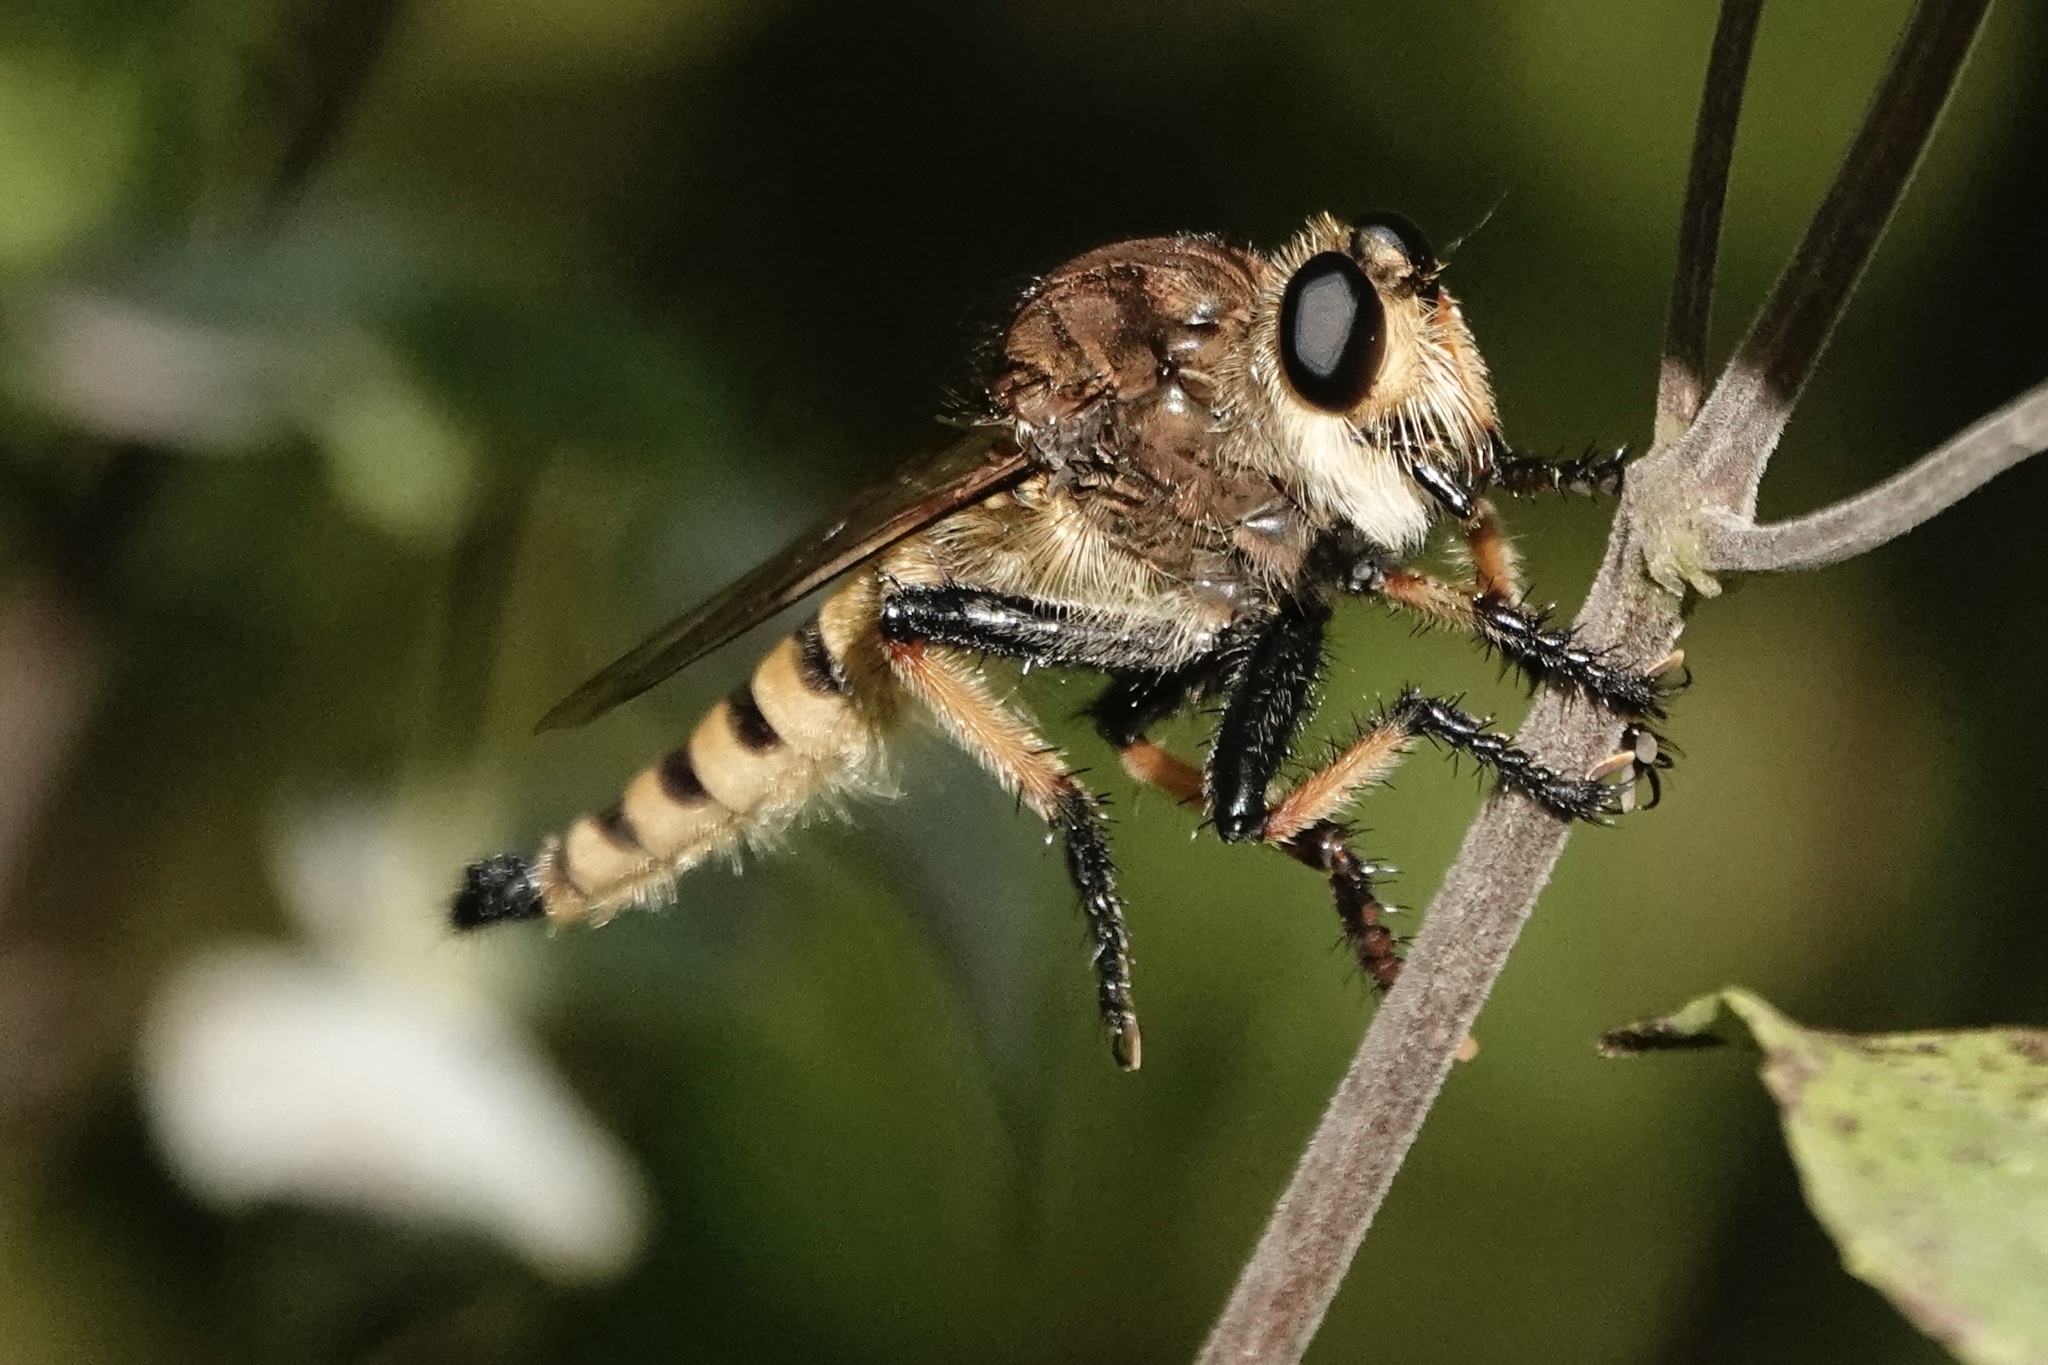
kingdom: Animalia
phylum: Arthropoda
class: Insecta
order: Diptera
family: Asilidae
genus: Promachus
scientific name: Promachus rufipes
